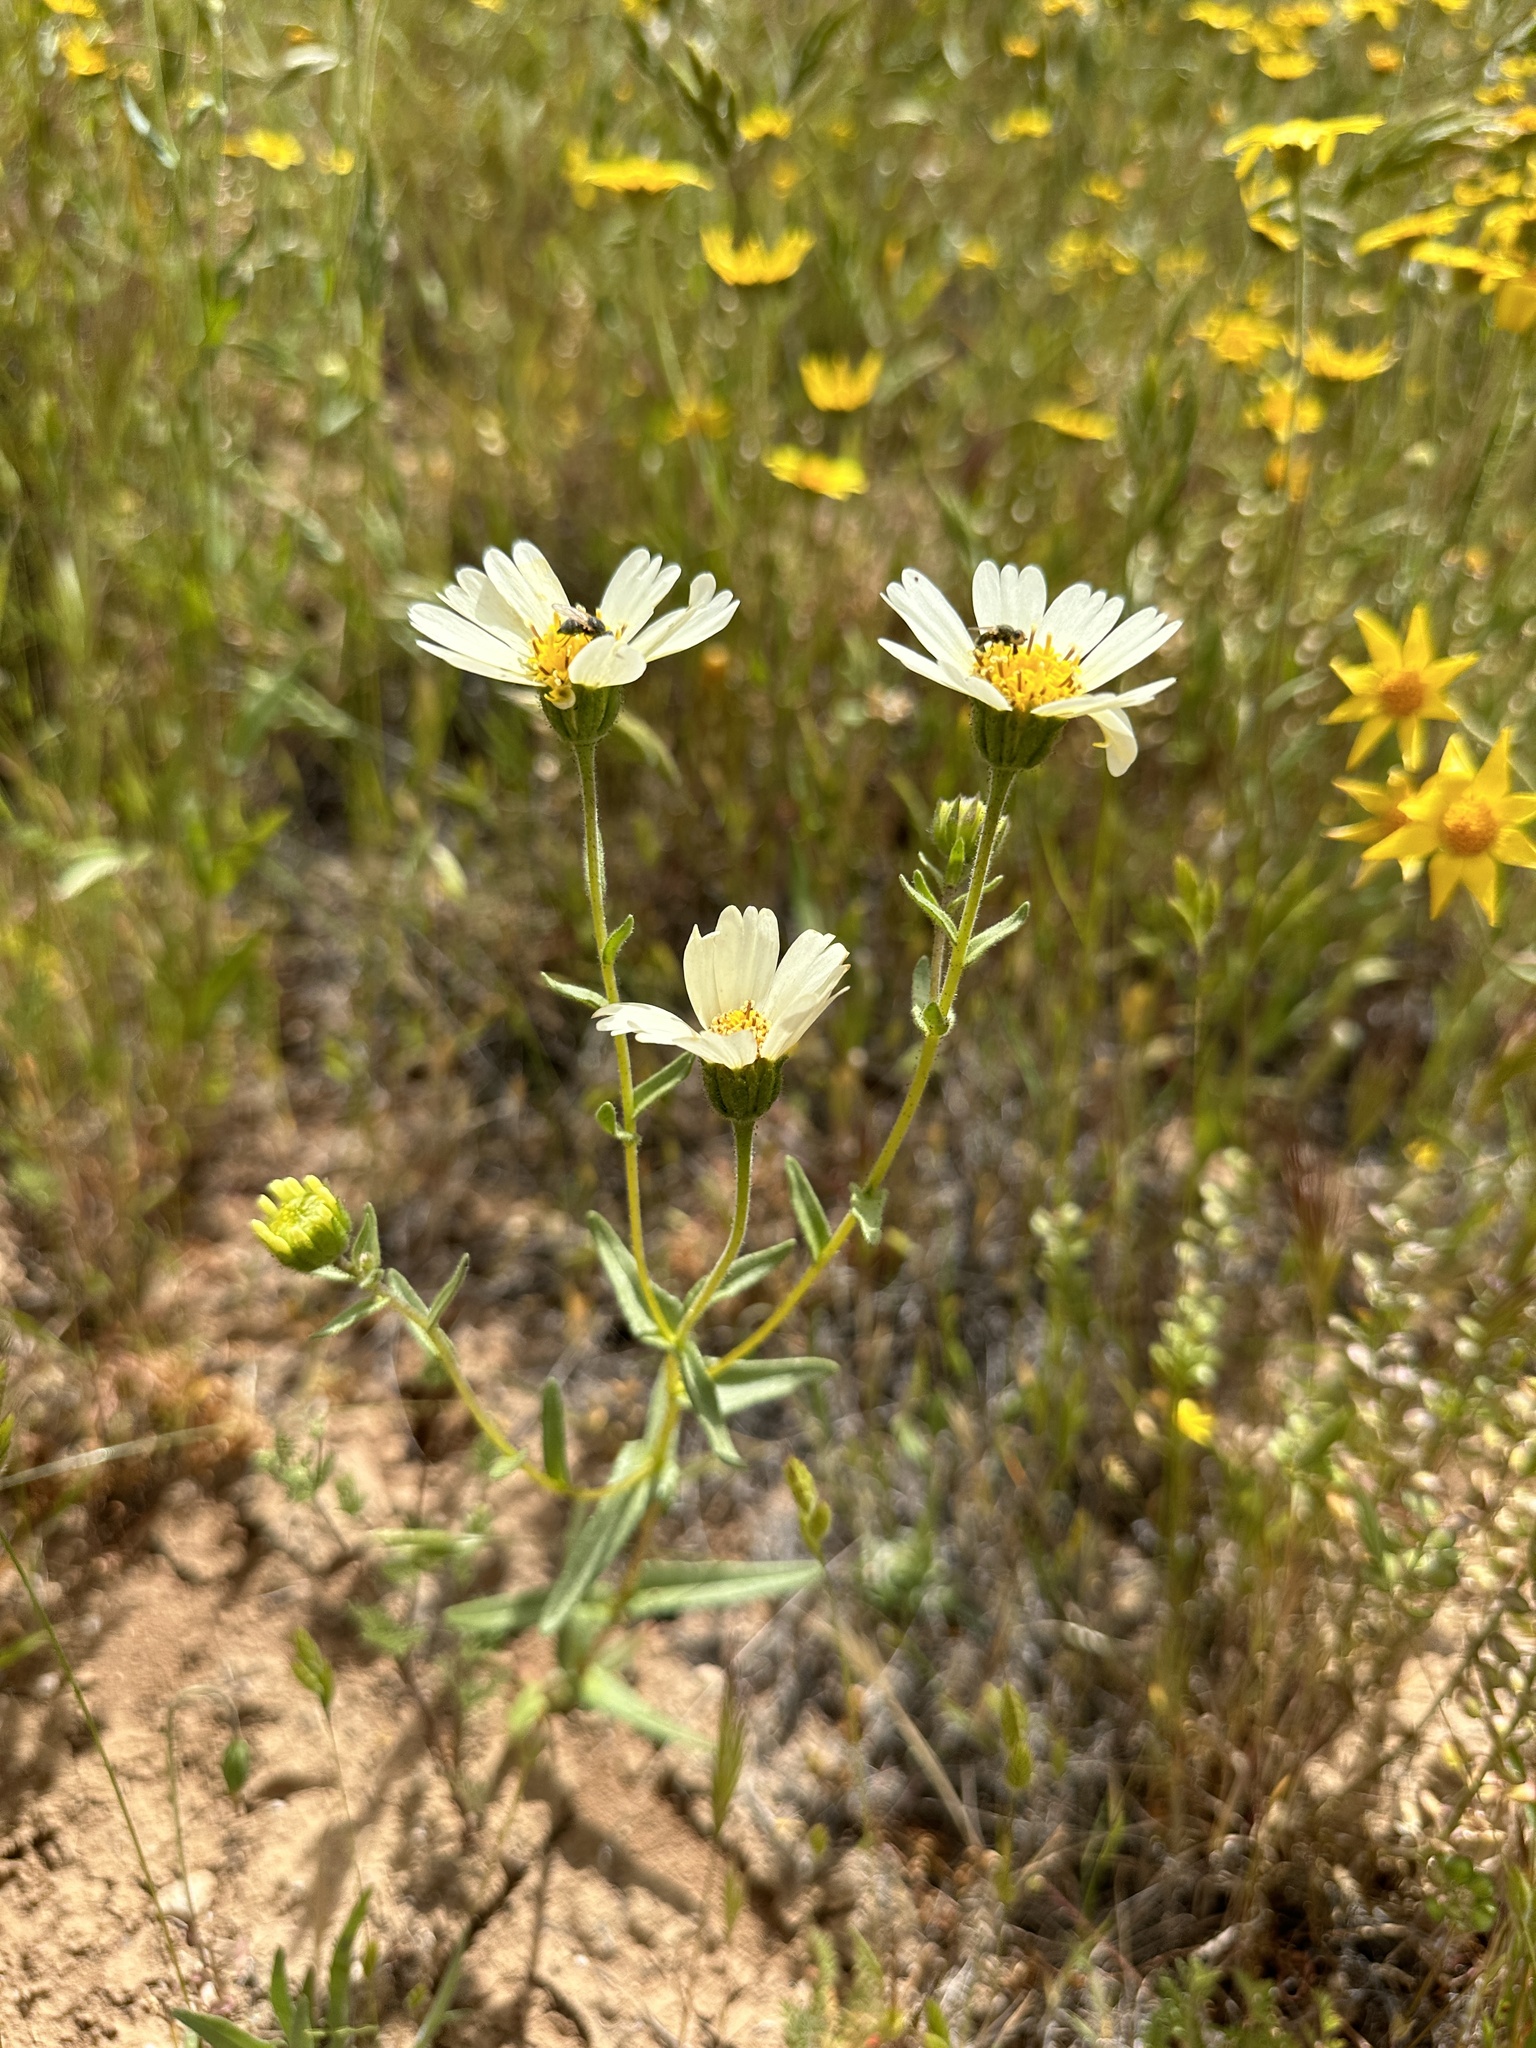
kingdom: Plantae
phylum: Tracheophyta
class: Magnoliopsida
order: Asterales
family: Asteraceae
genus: Layia
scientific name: Layia heterotricha
